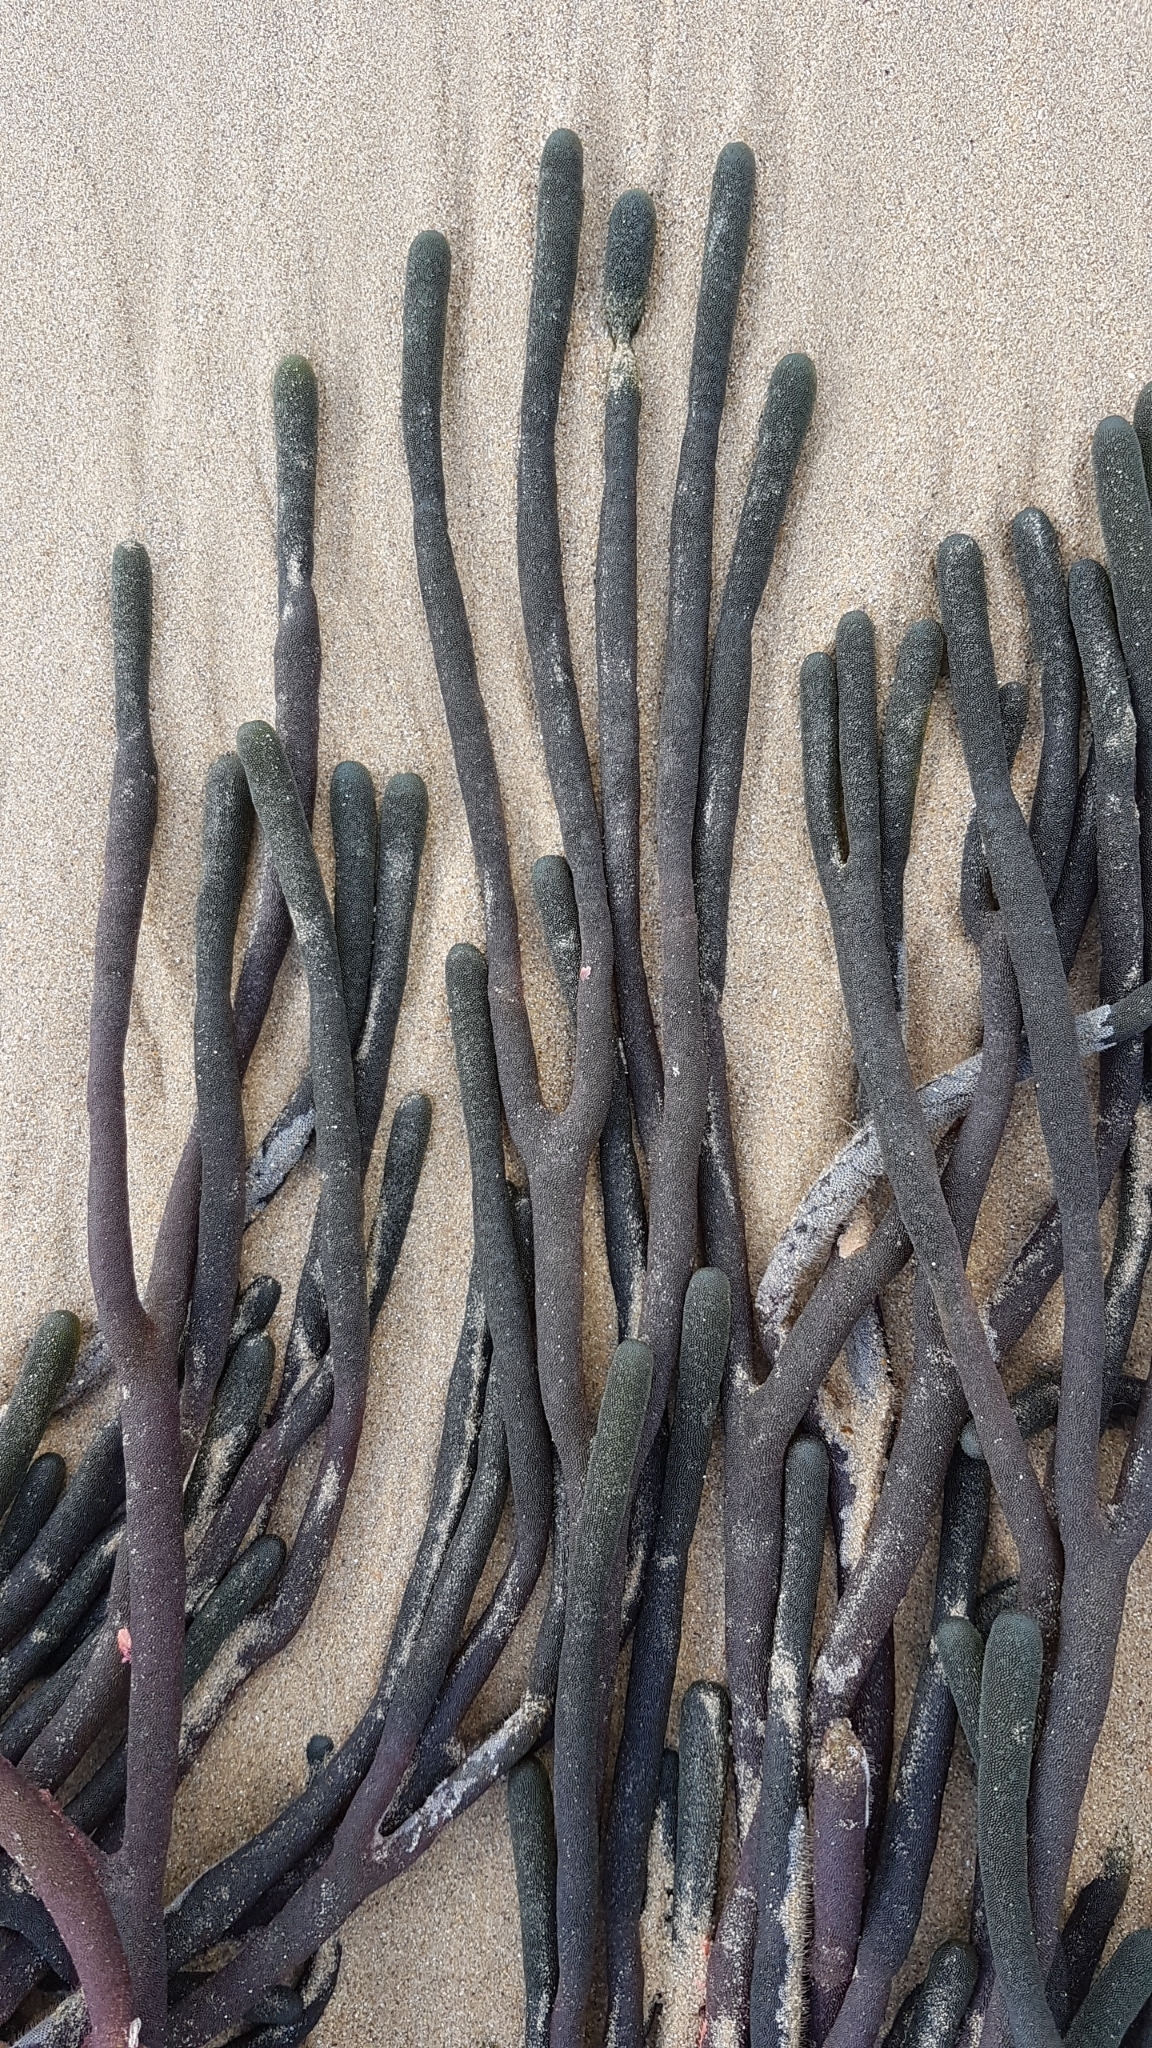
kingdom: Plantae
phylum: Chlorophyta
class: Ulvophyceae
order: Bryopsidales
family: Codiaceae
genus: Codium
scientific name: Codium fragile
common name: Dead man's fingers
